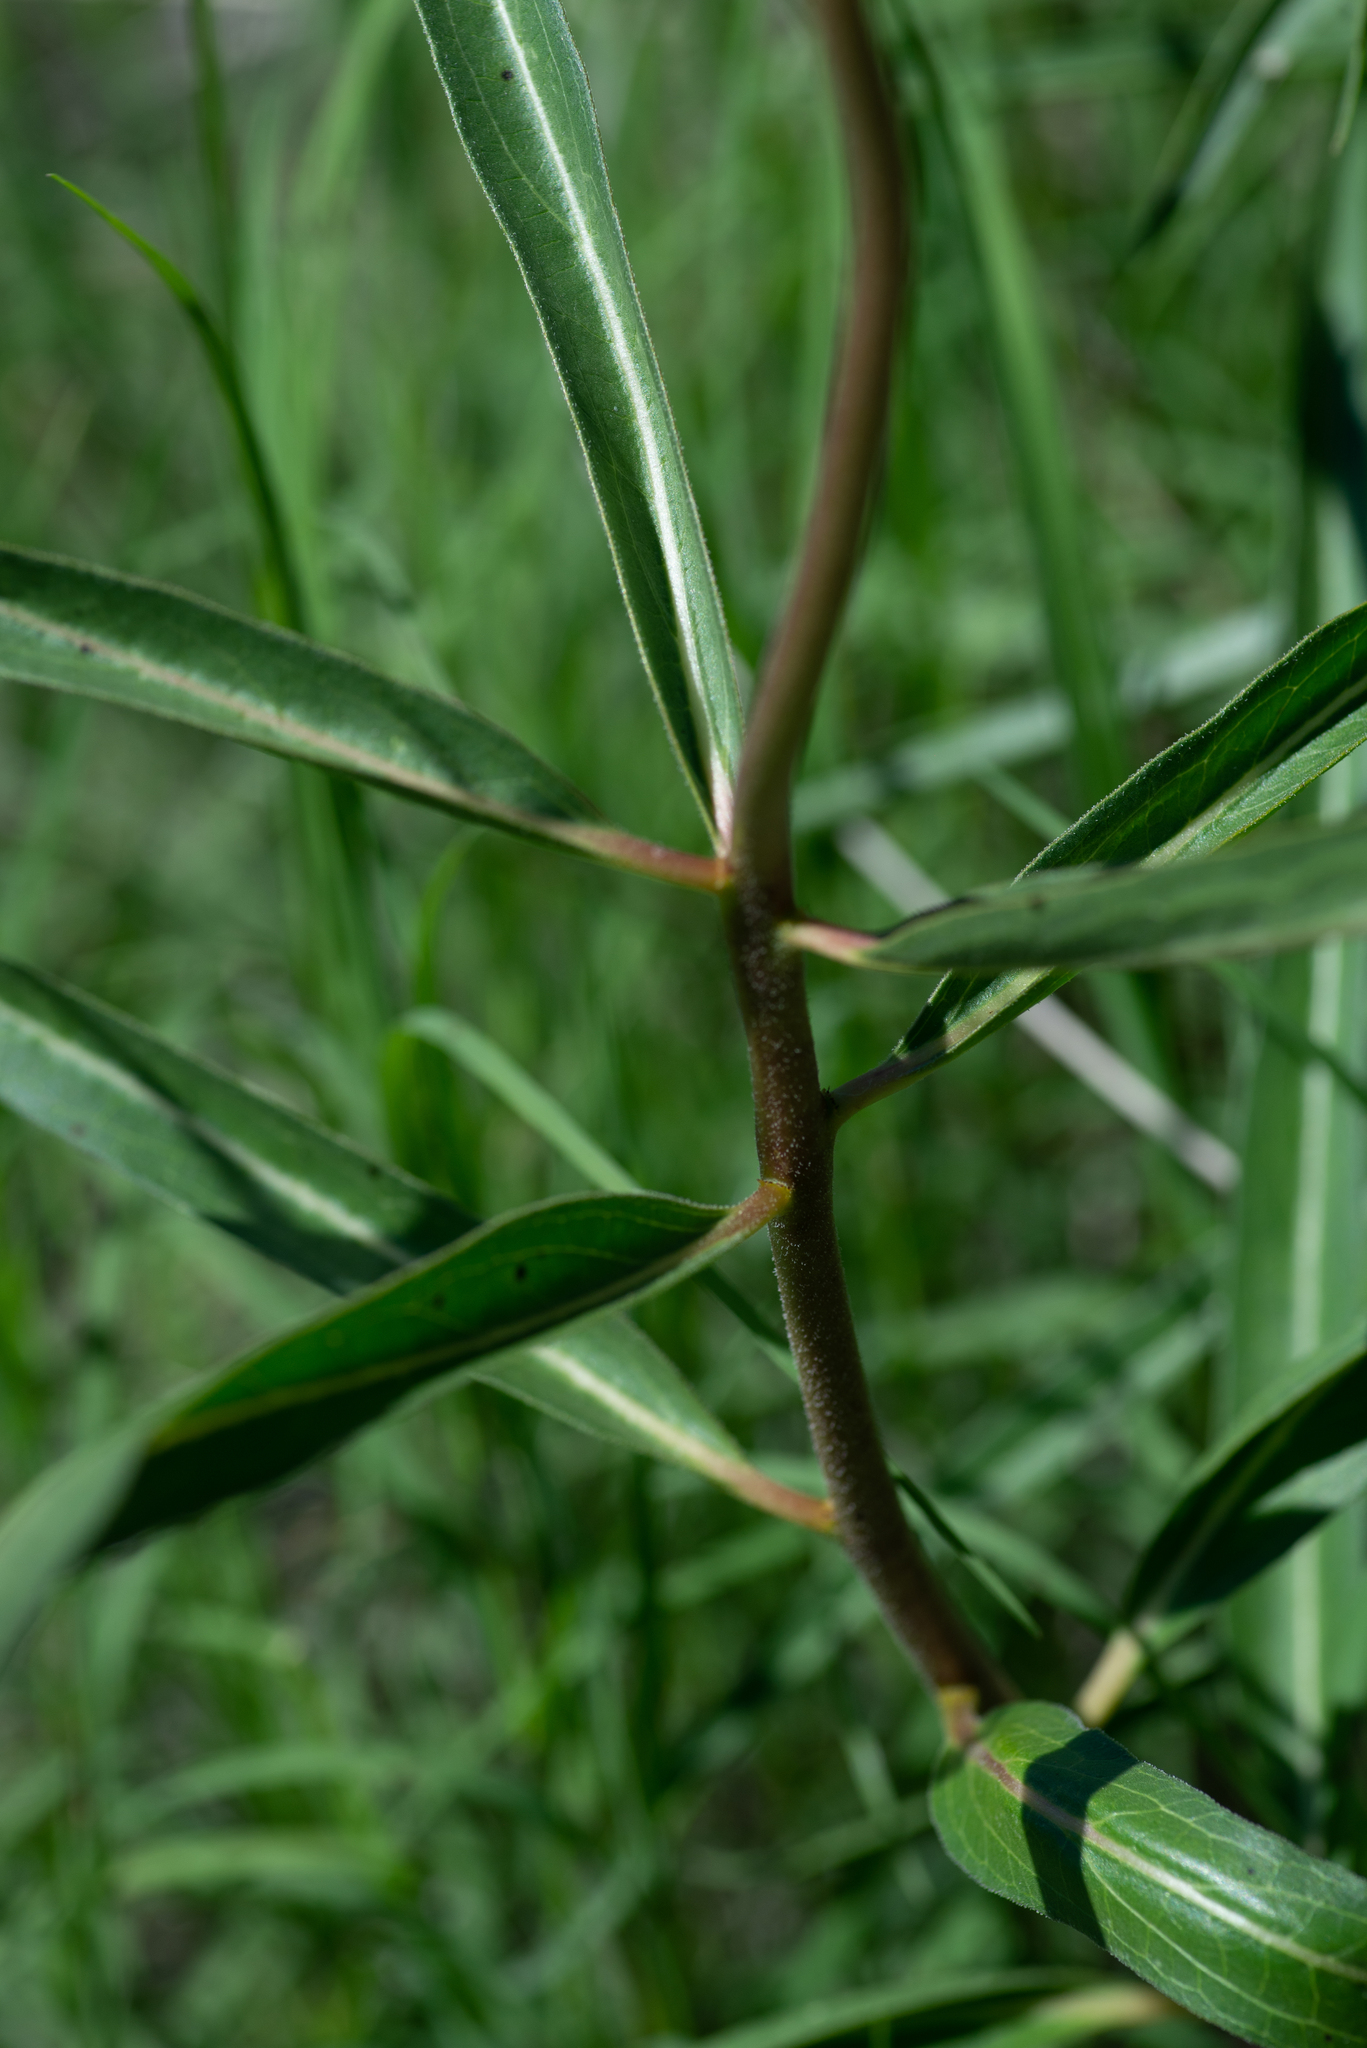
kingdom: Plantae
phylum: Tracheophyta
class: Magnoliopsida
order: Gentianales
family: Apocynaceae
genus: Asclepias
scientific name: Asclepias asperula
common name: Antelope horns
